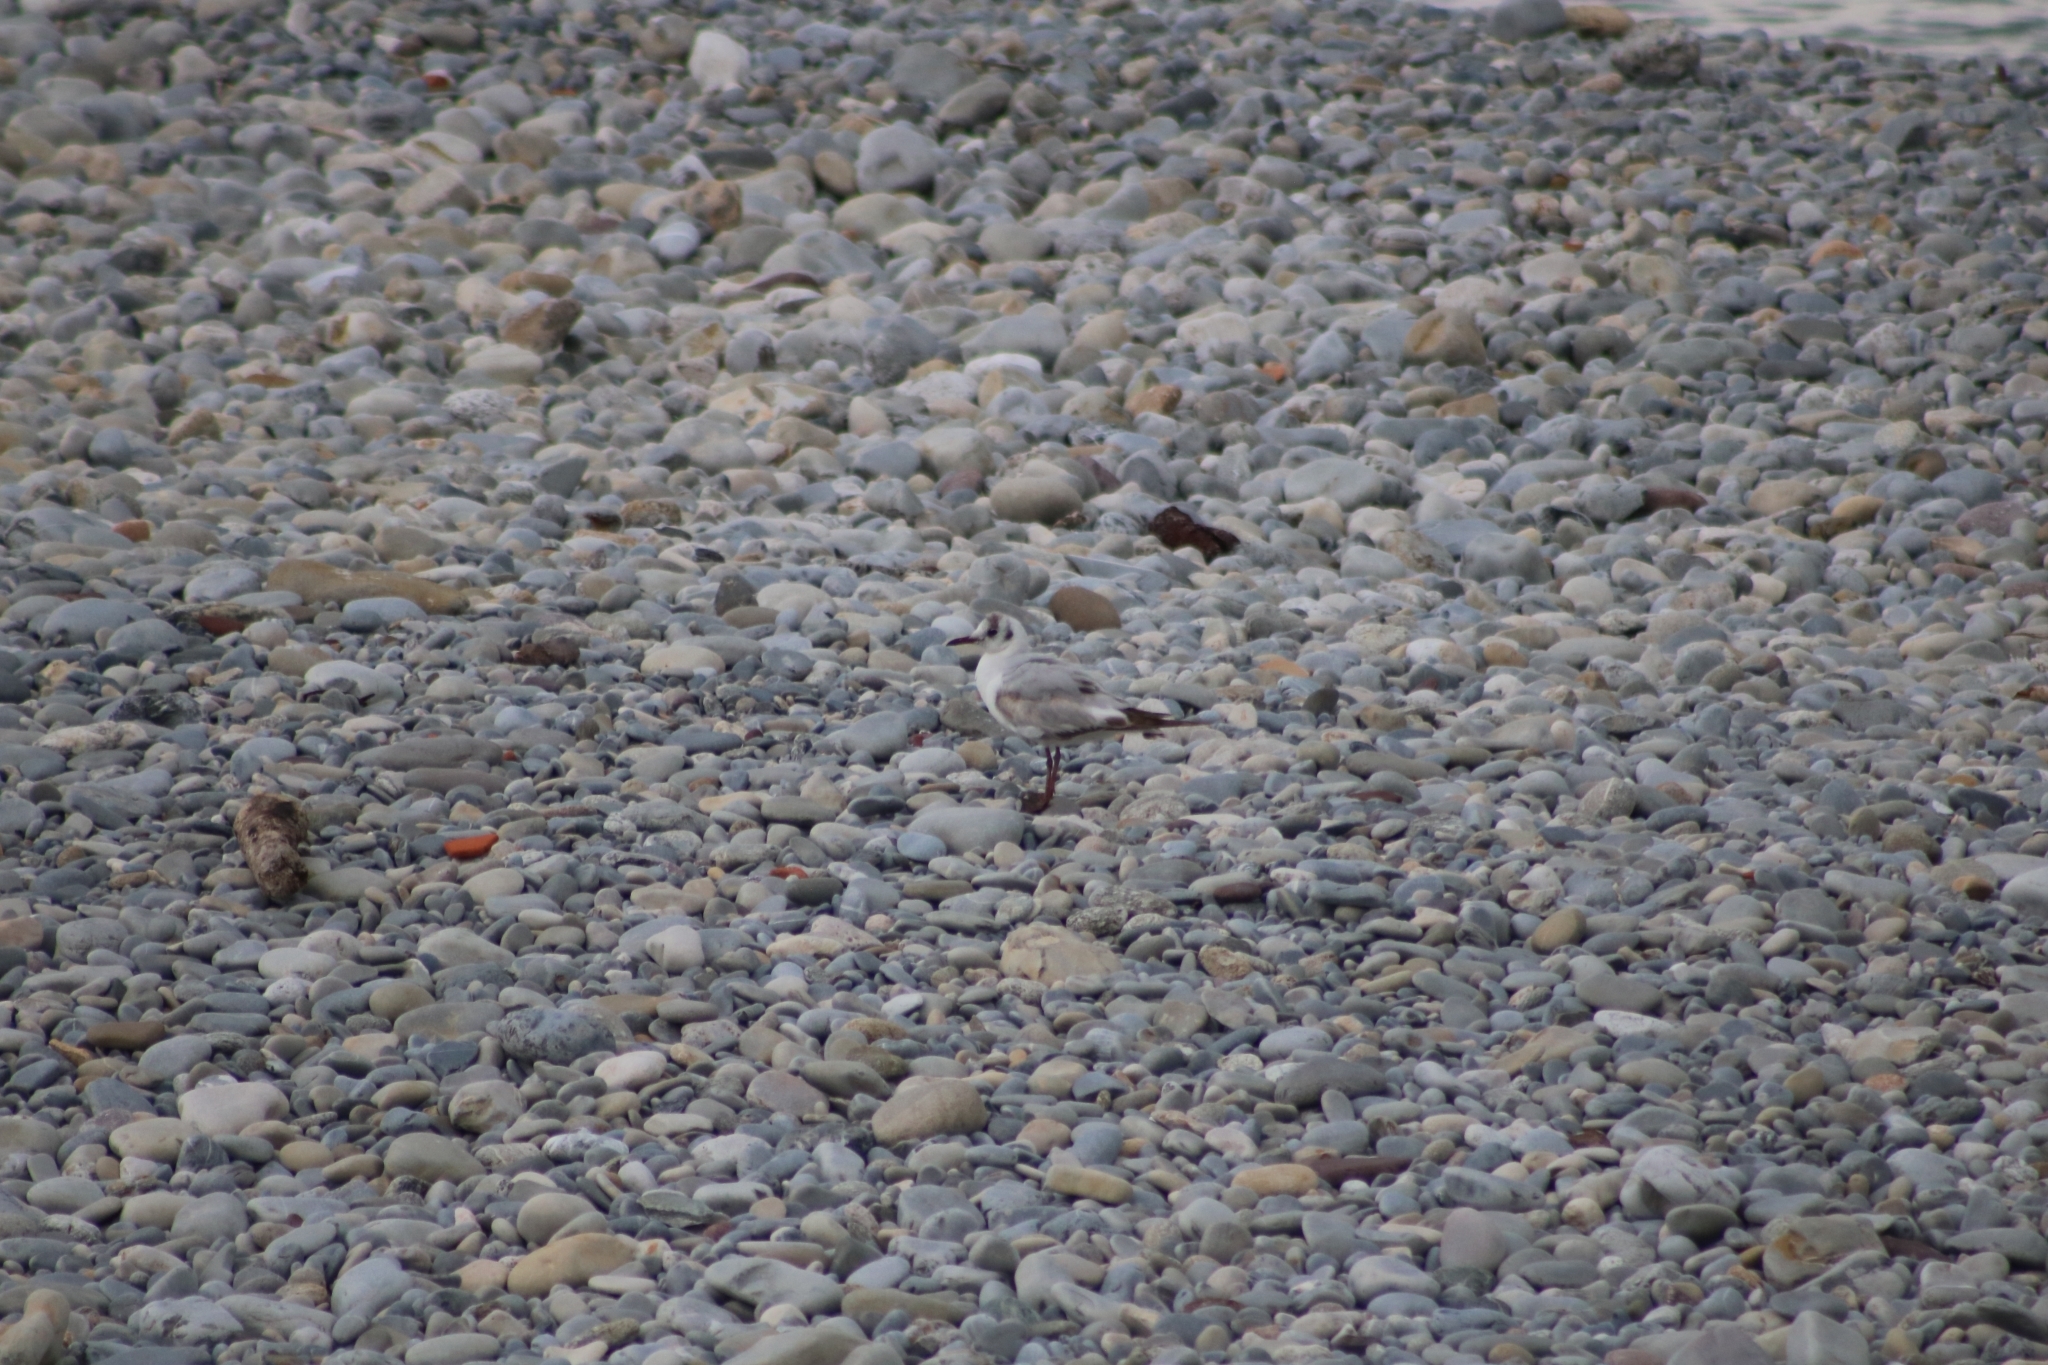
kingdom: Animalia
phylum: Chordata
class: Aves
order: Charadriiformes
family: Laridae
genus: Chroicocephalus
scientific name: Chroicocephalus ridibundus
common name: Black-headed gull
